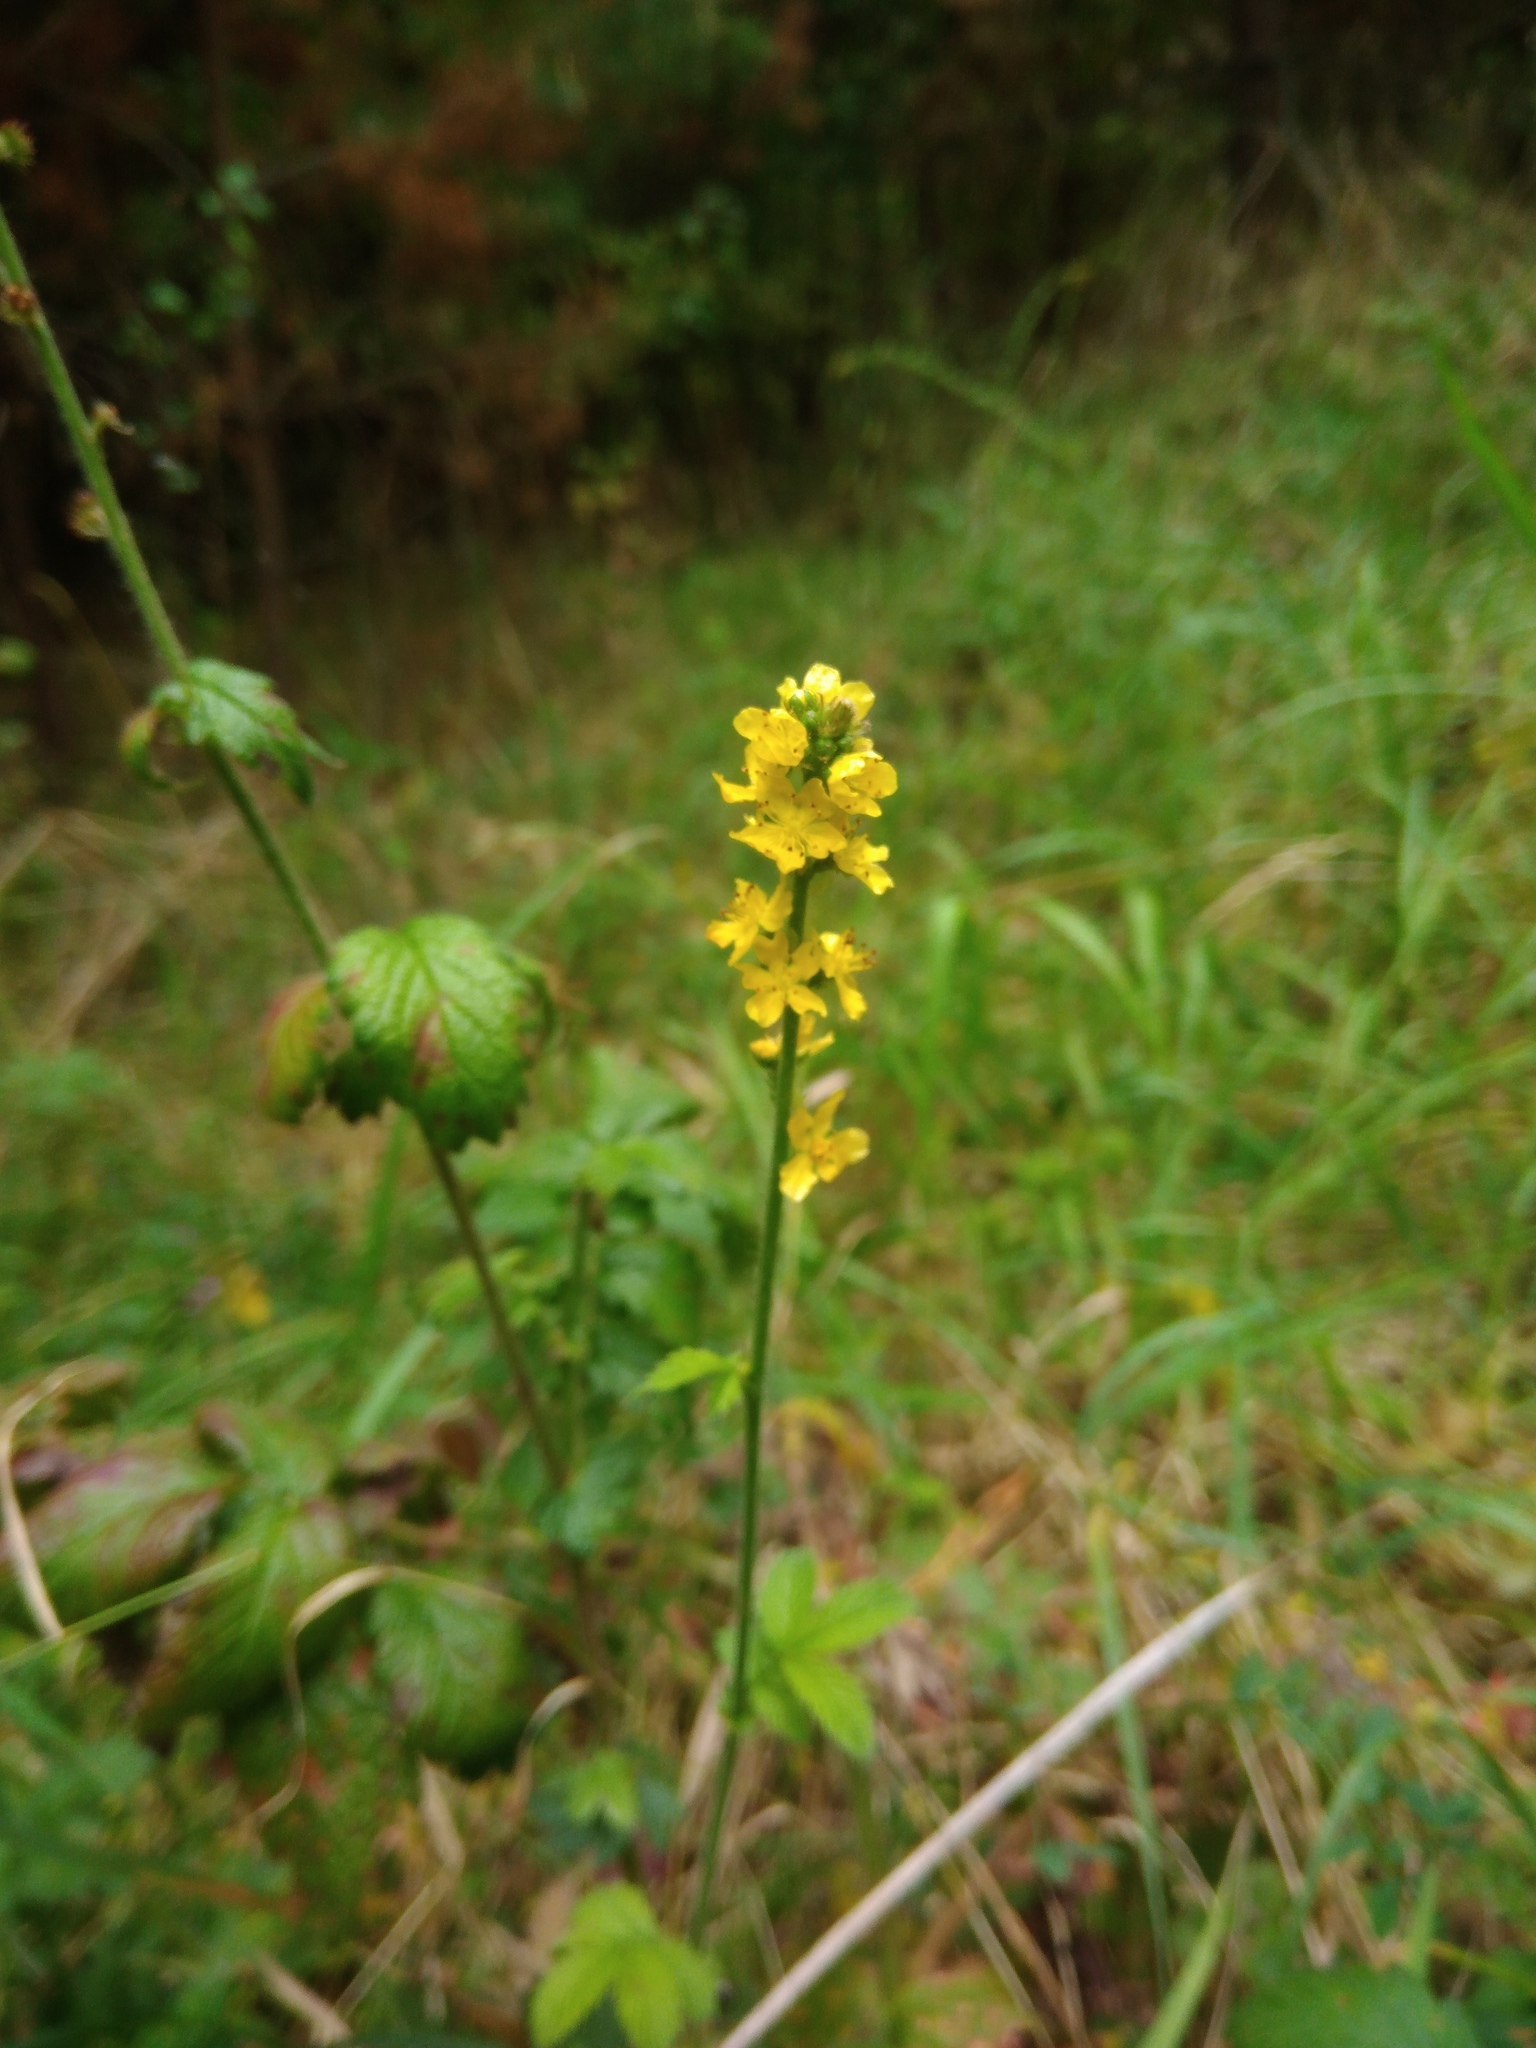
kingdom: Plantae
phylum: Tracheophyta
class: Magnoliopsida
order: Rosales
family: Rosaceae
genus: Agrimonia
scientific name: Agrimonia eupatoria
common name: Agrimony
